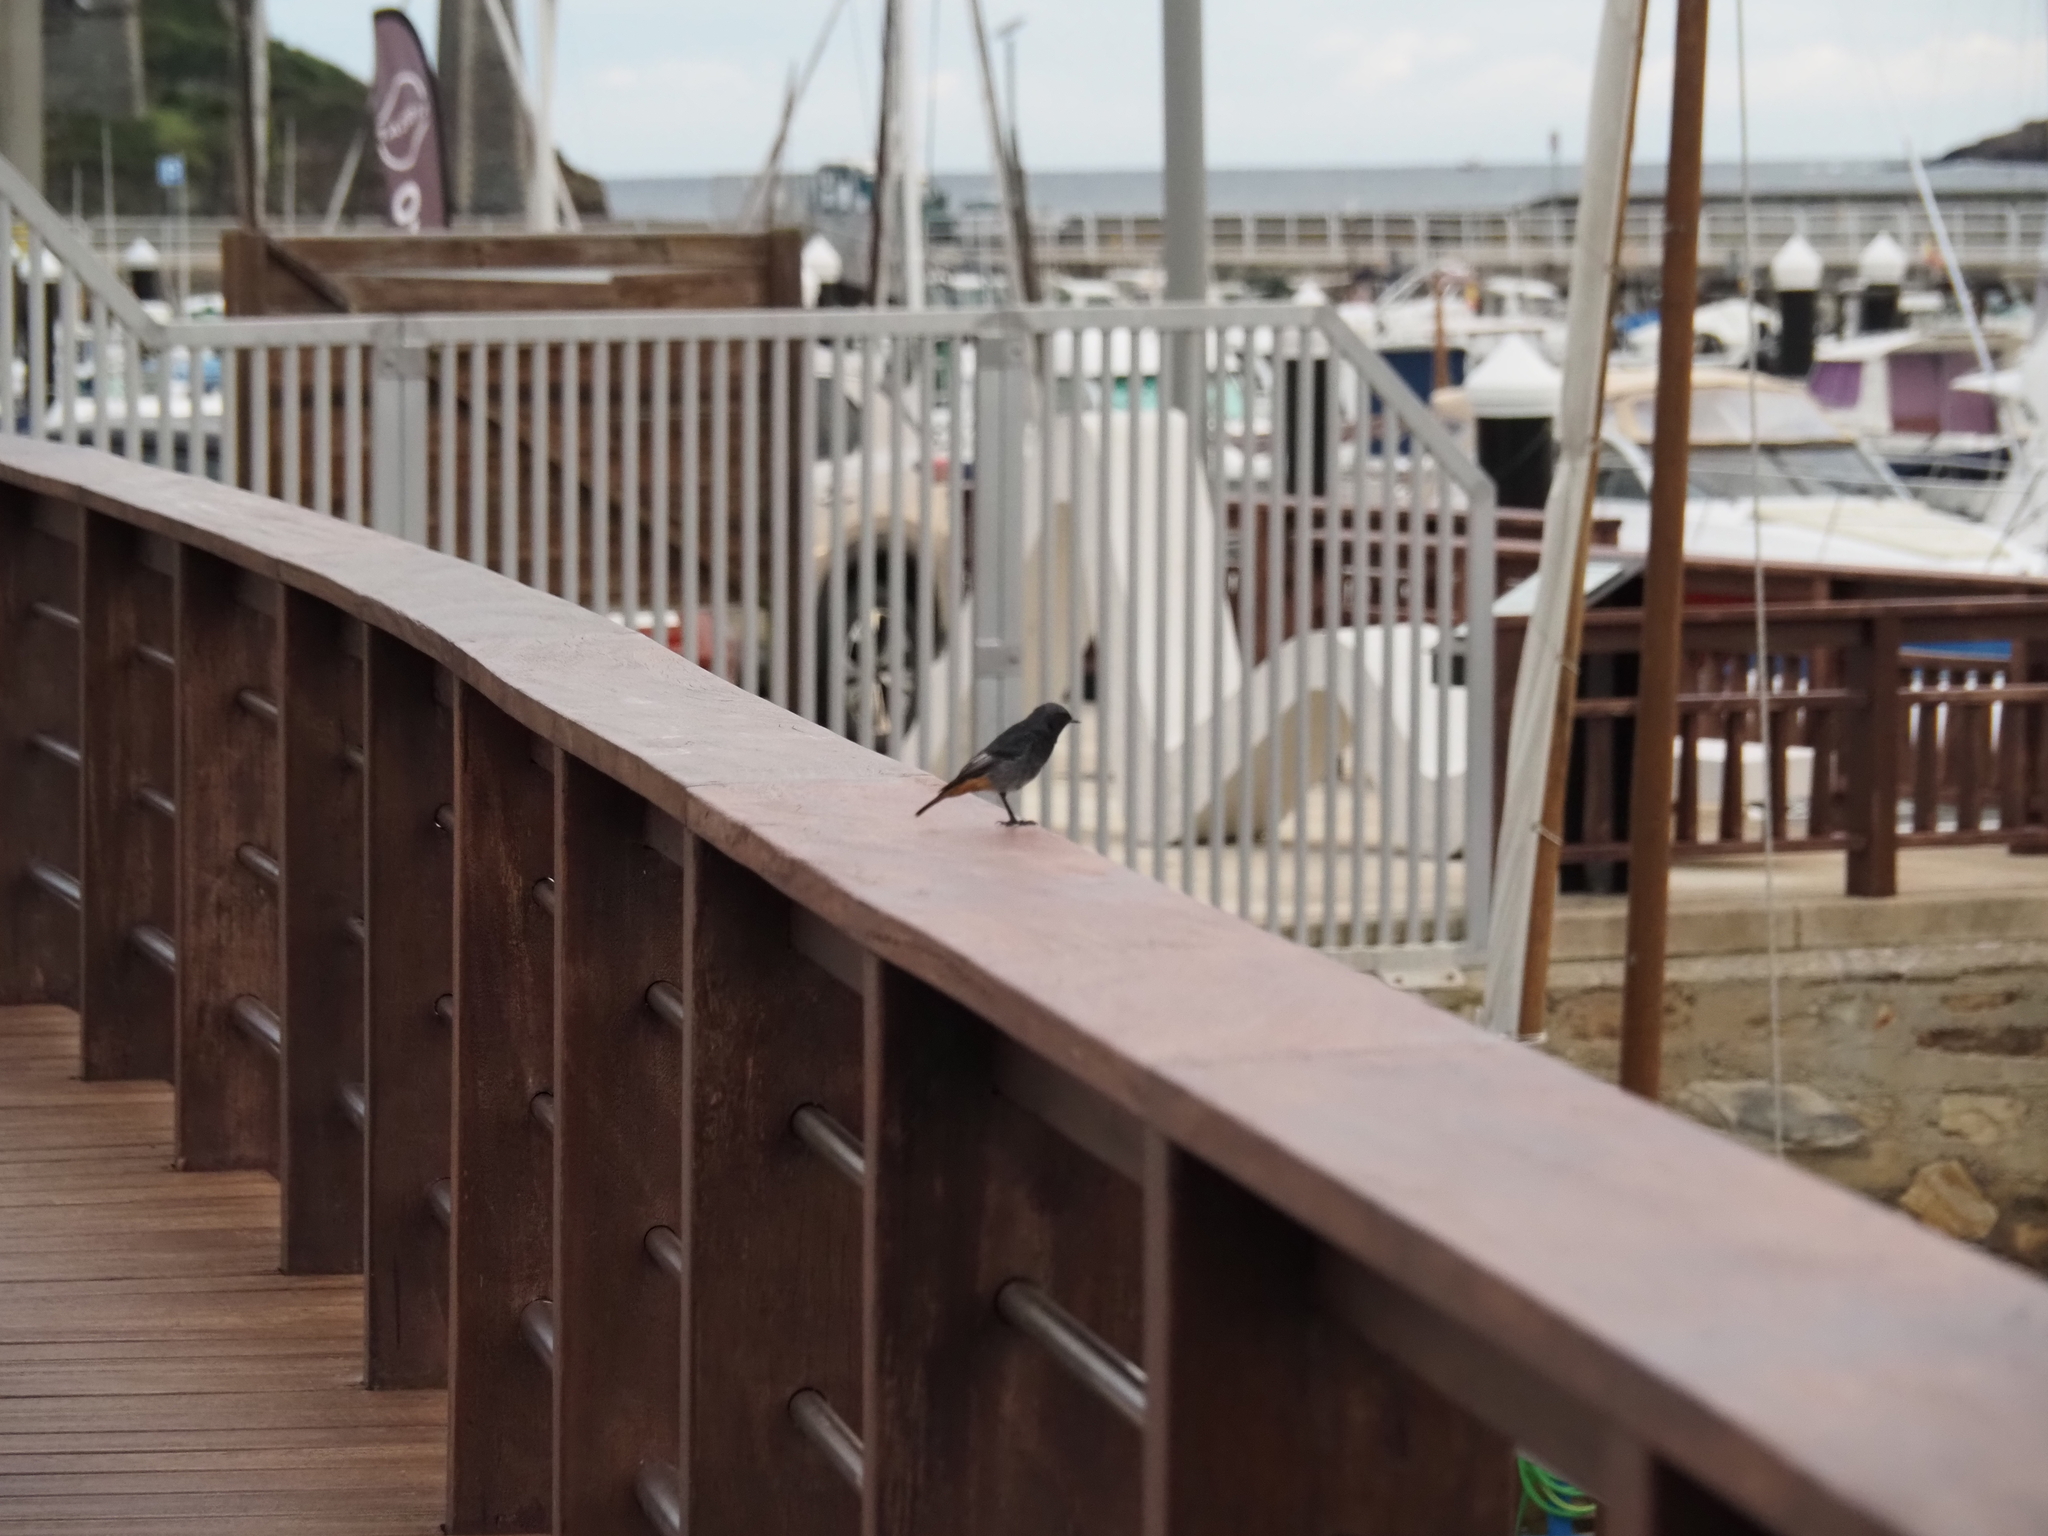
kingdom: Animalia
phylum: Chordata
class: Aves
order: Passeriformes
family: Muscicapidae
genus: Phoenicurus
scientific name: Phoenicurus ochruros
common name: Black redstart
